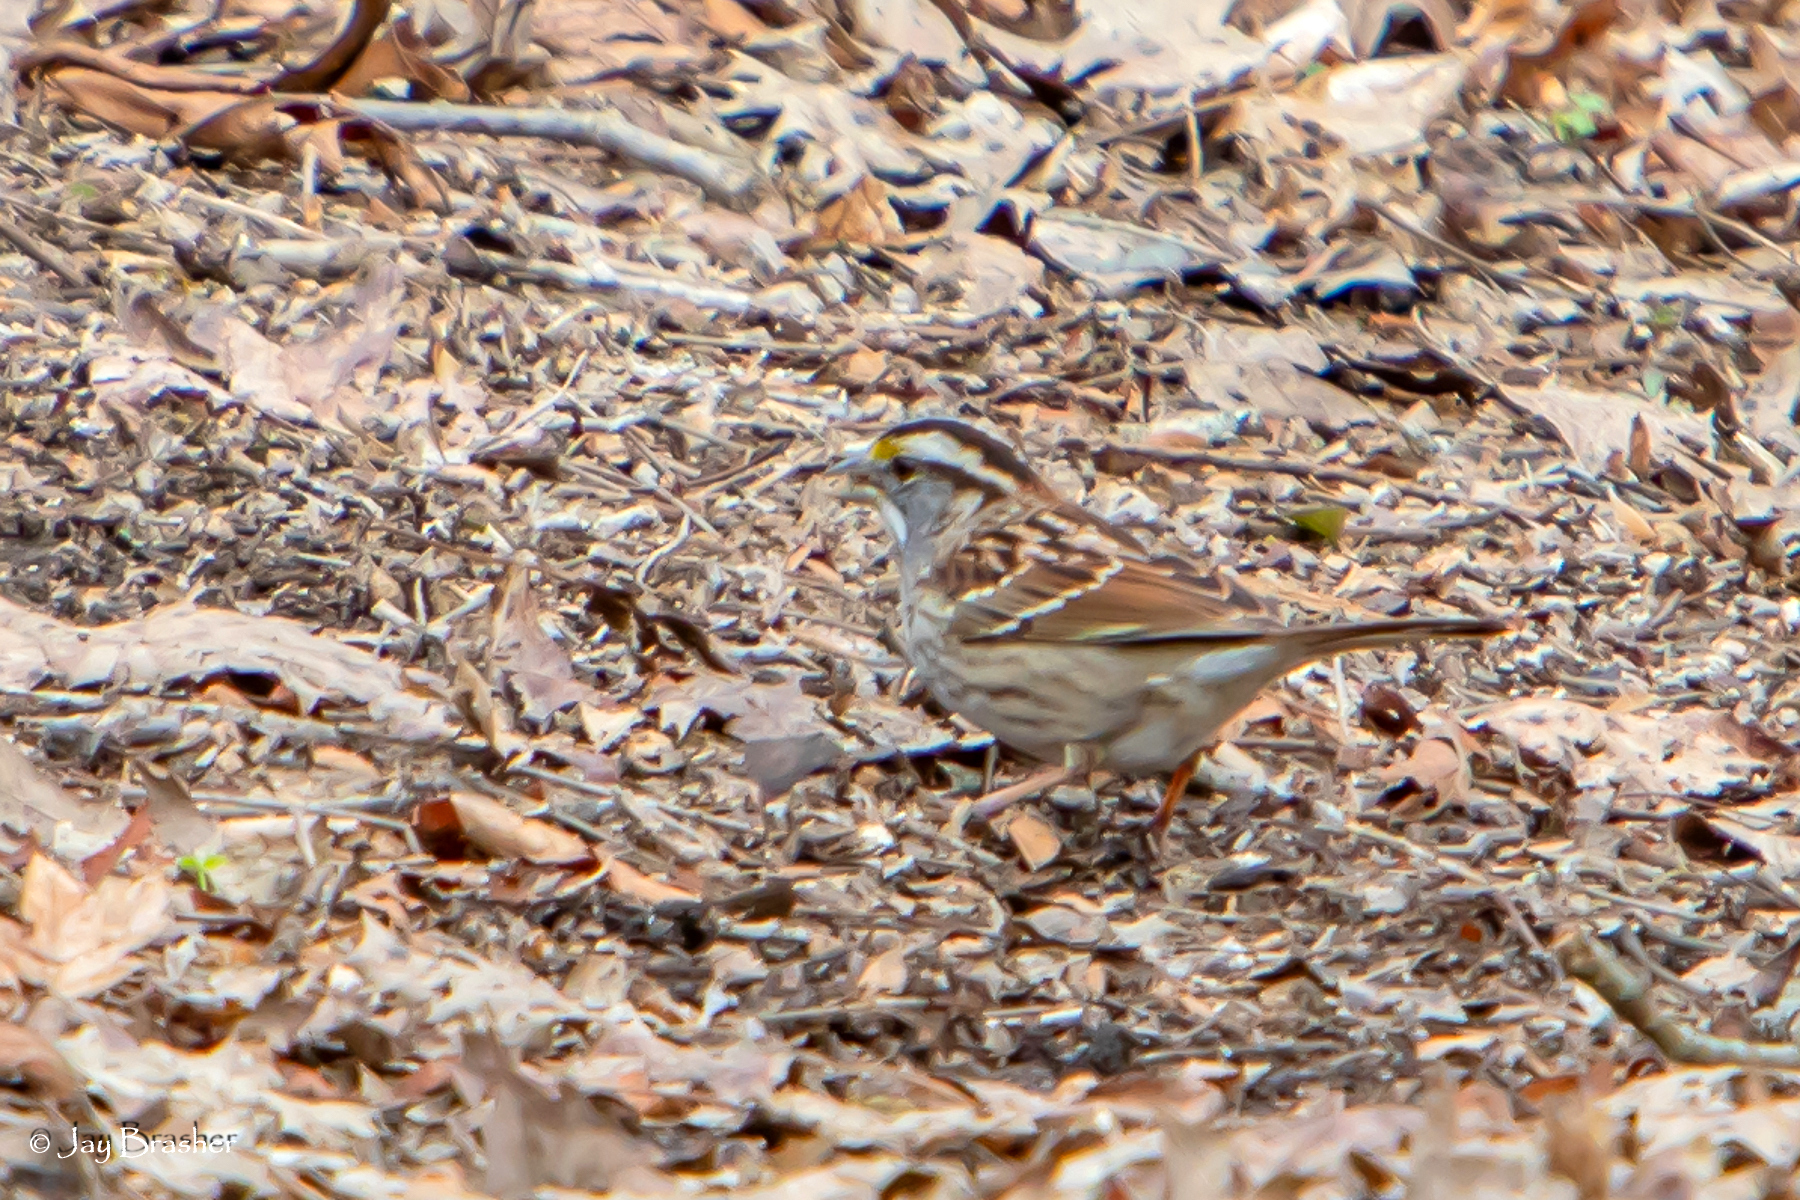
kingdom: Animalia
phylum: Chordata
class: Aves
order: Passeriformes
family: Passerellidae
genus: Zonotrichia
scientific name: Zonotrichia albicollis
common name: White-throated sparrow
